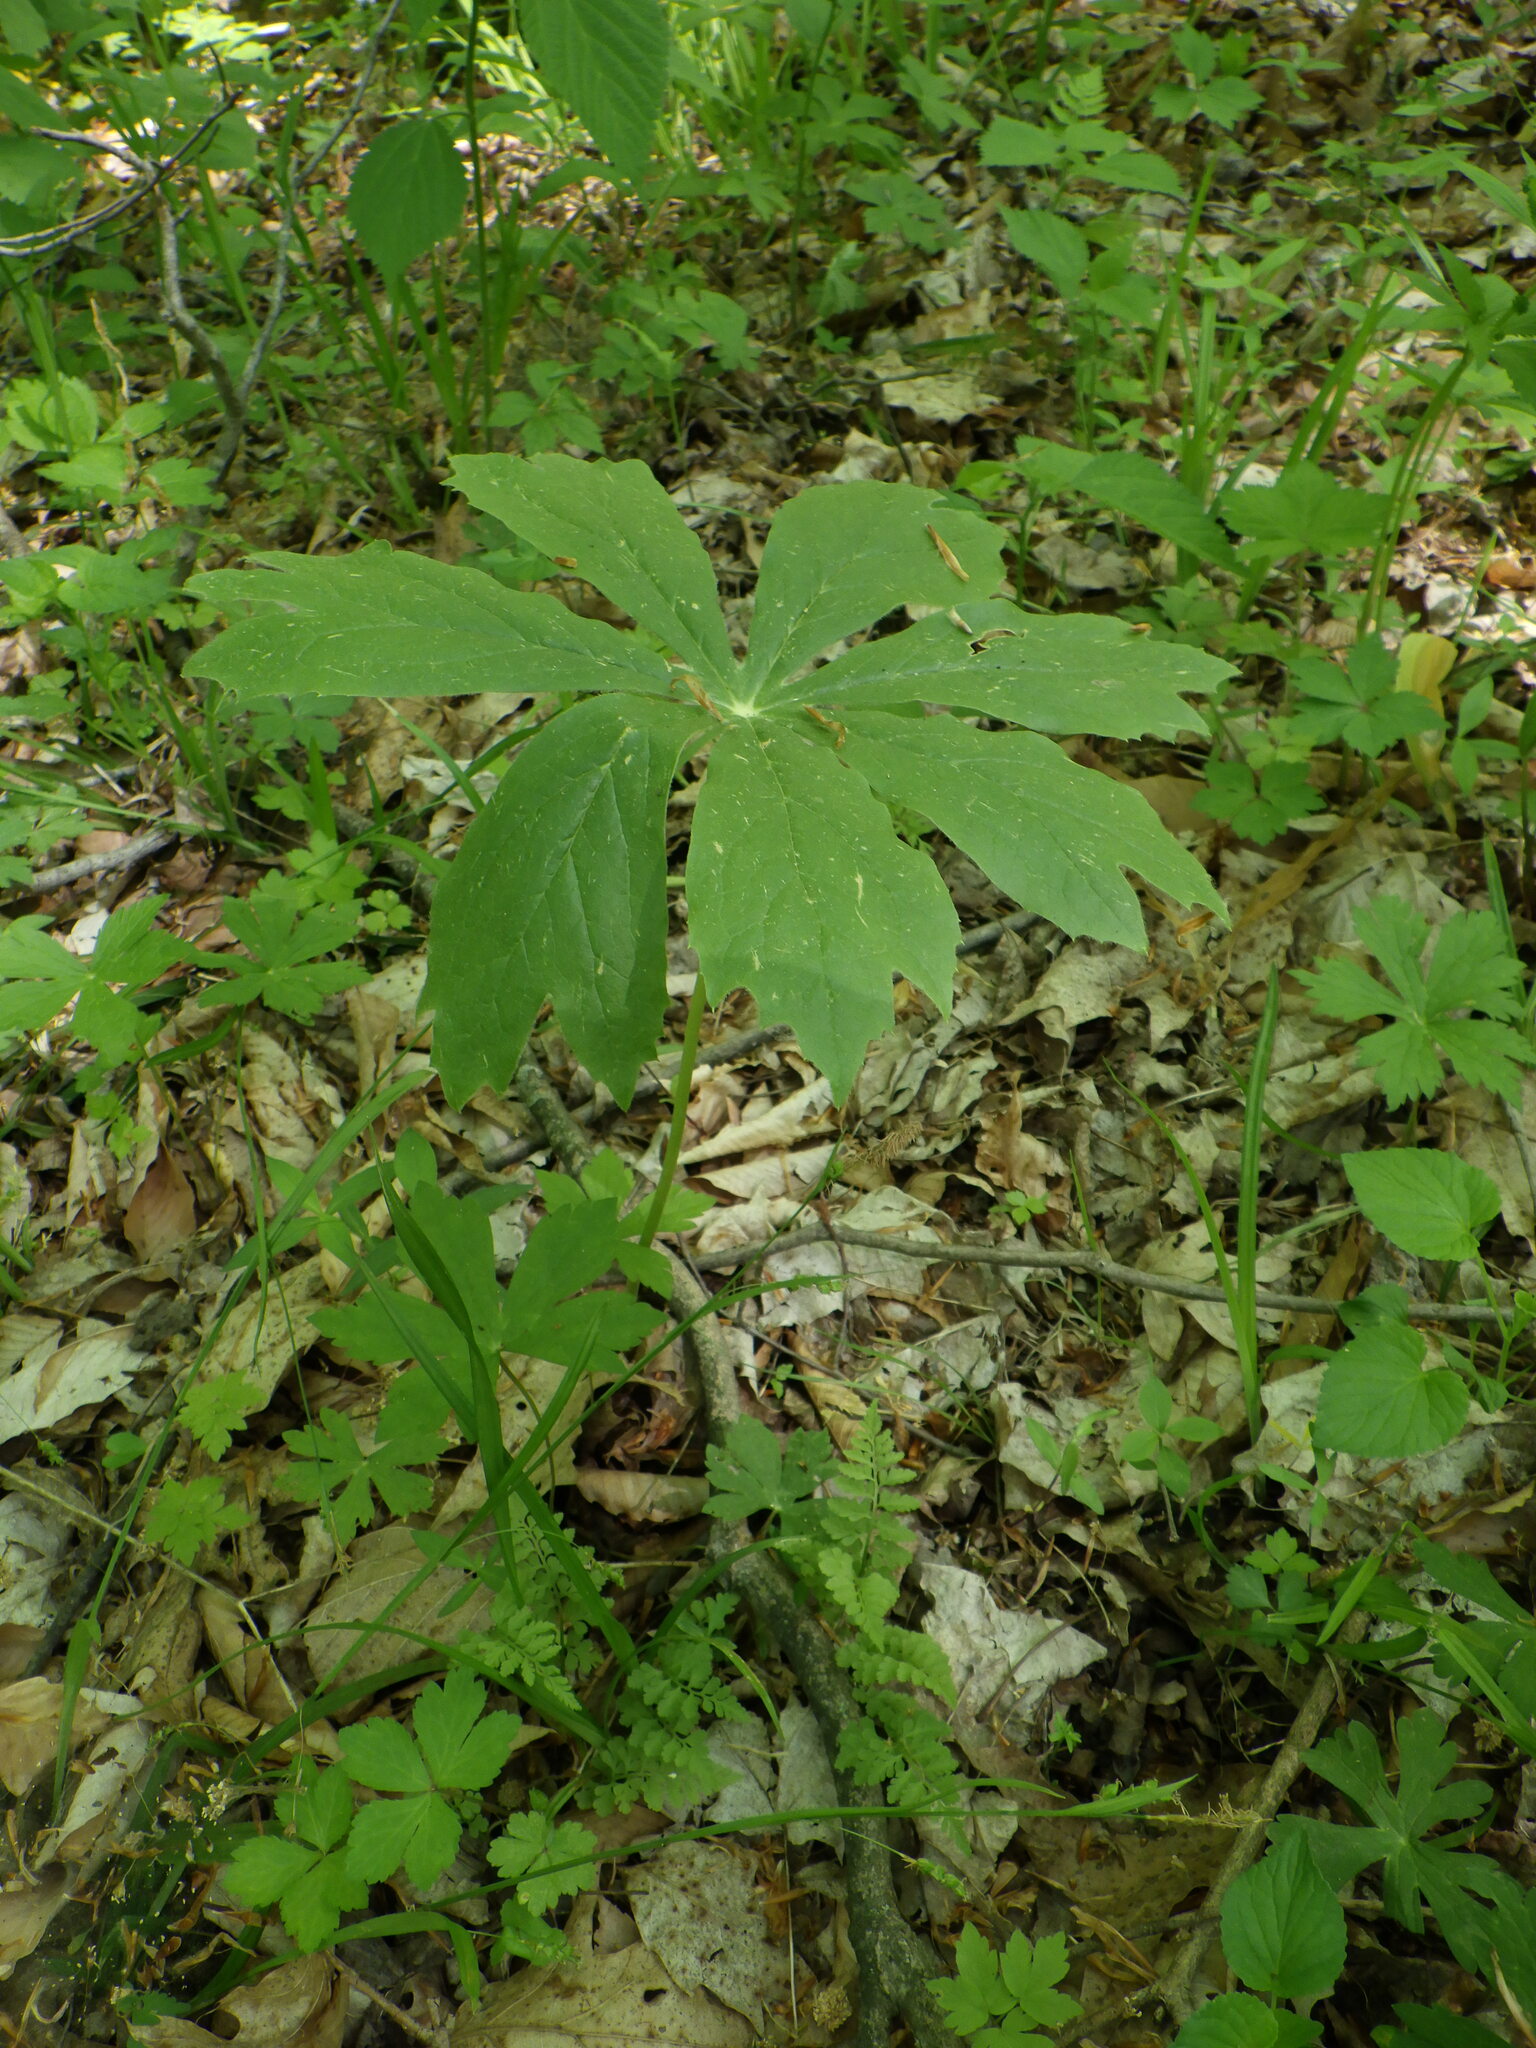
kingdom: Plantae
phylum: Tracheophyta
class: Magnoliopsida
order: Ranunculales
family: Berberidaceae
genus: Podophyllum
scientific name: Podophyllum peltatum
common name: Wild mandrake
